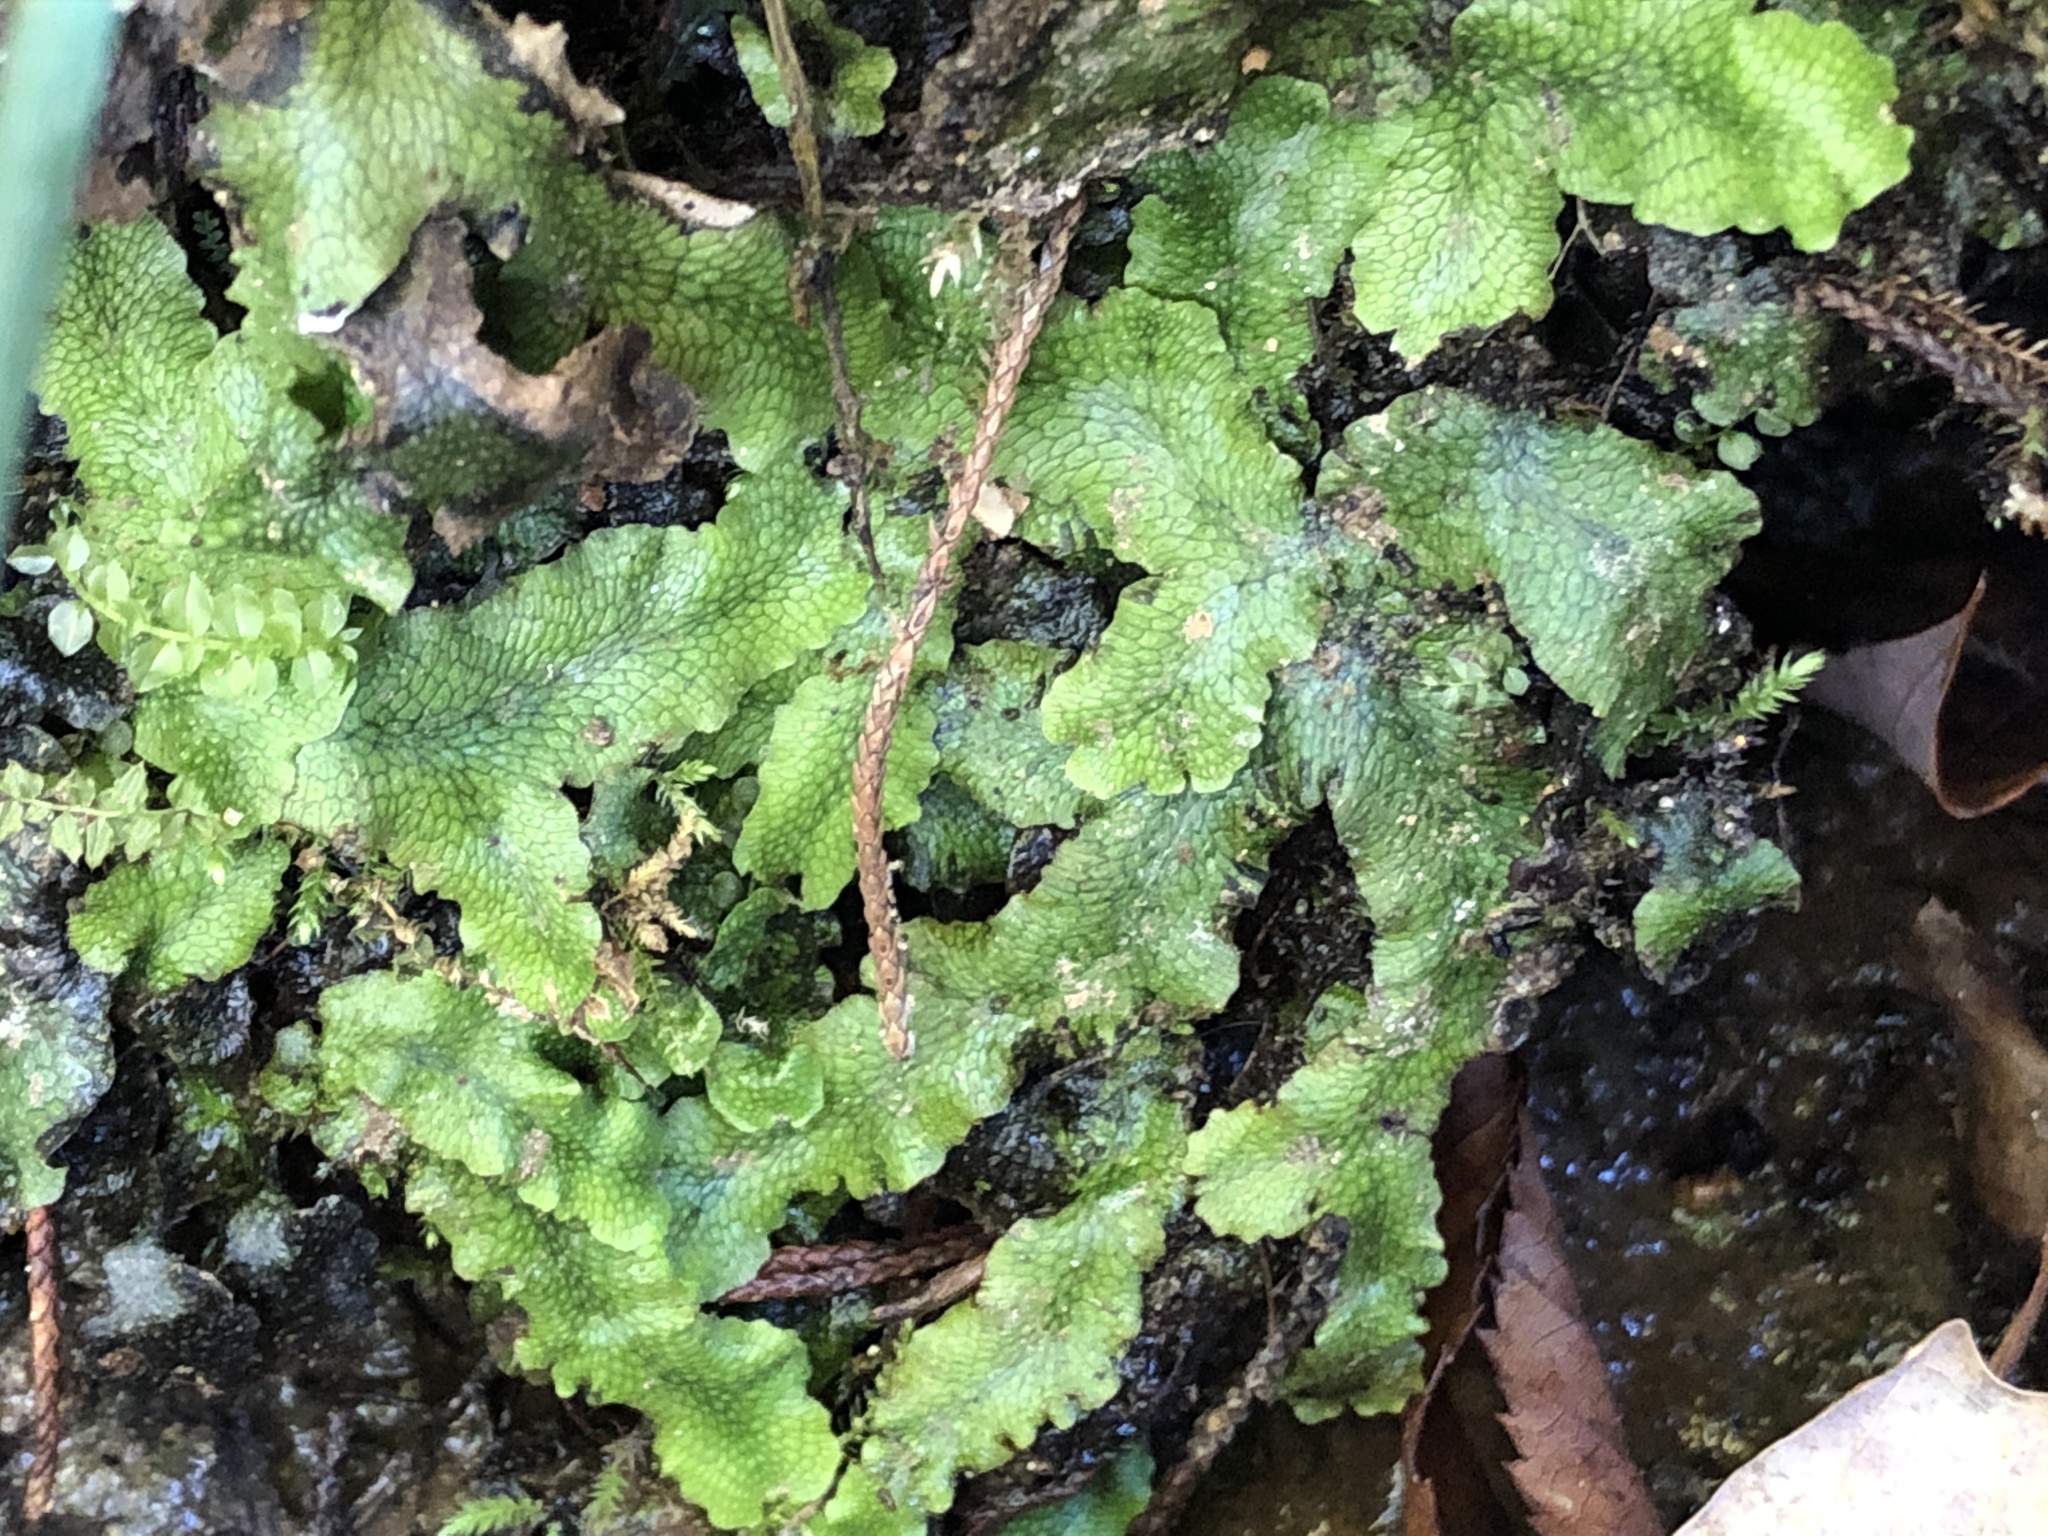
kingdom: Plantae
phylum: Marchantiophyta
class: Marchantiopsida
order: Marchantiales
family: Conocephalaceae
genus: Conocephalum
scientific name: Conocephalum salebrosum
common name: Cat-tongue liverwort
